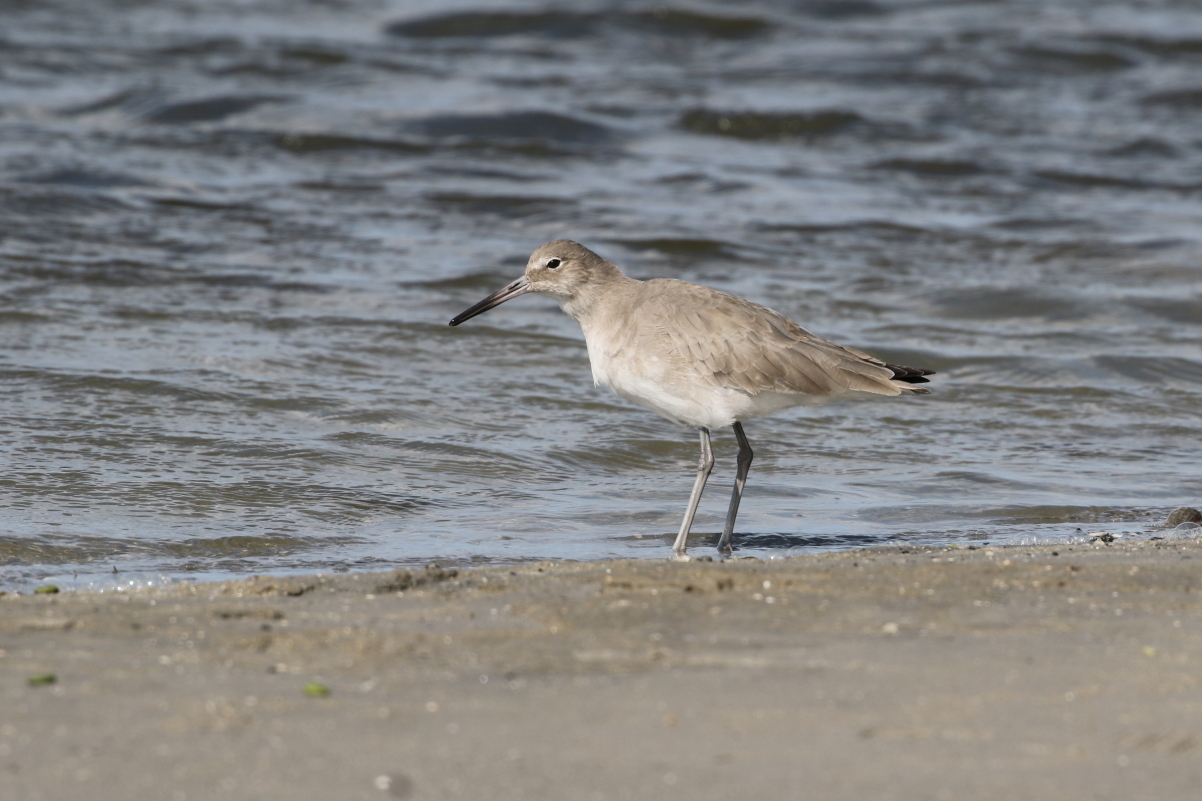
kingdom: Animalia
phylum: Chordata
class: Aves
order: Charadriiformes
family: Scolopacidae
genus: Tringa
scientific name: Tringa semipalmata
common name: Willet
